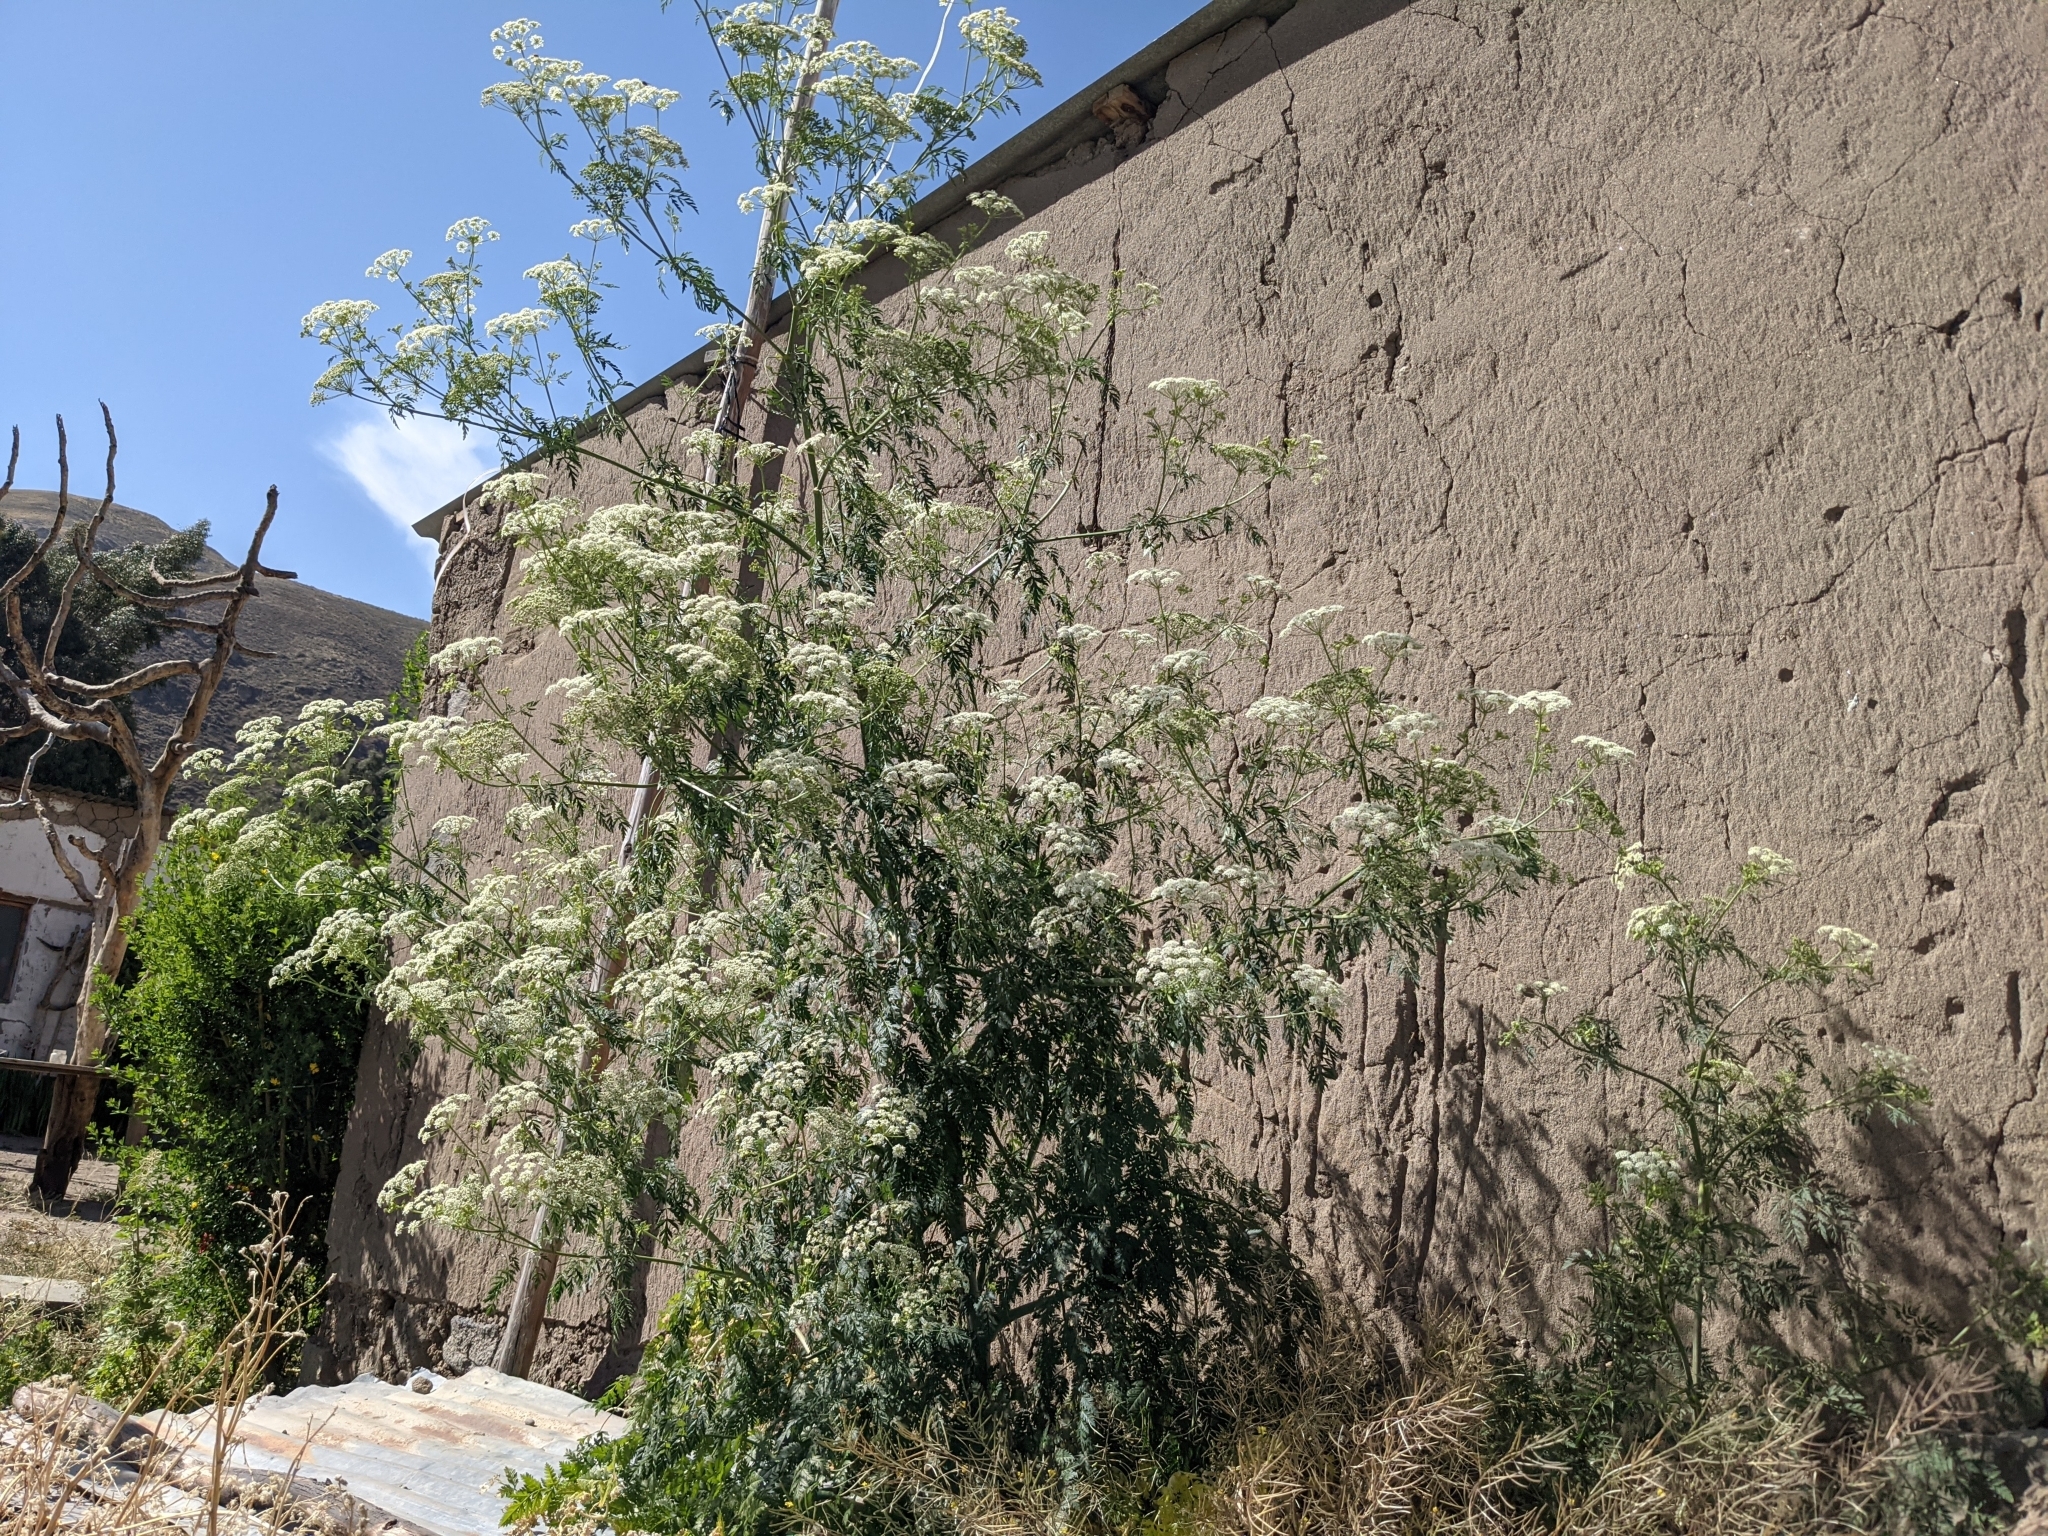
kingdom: Plantae
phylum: Tracheophyta
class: Magnoliopsida
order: Apiales
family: Apiaceae
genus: Conium
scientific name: Conium maculatum
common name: Hemlock
